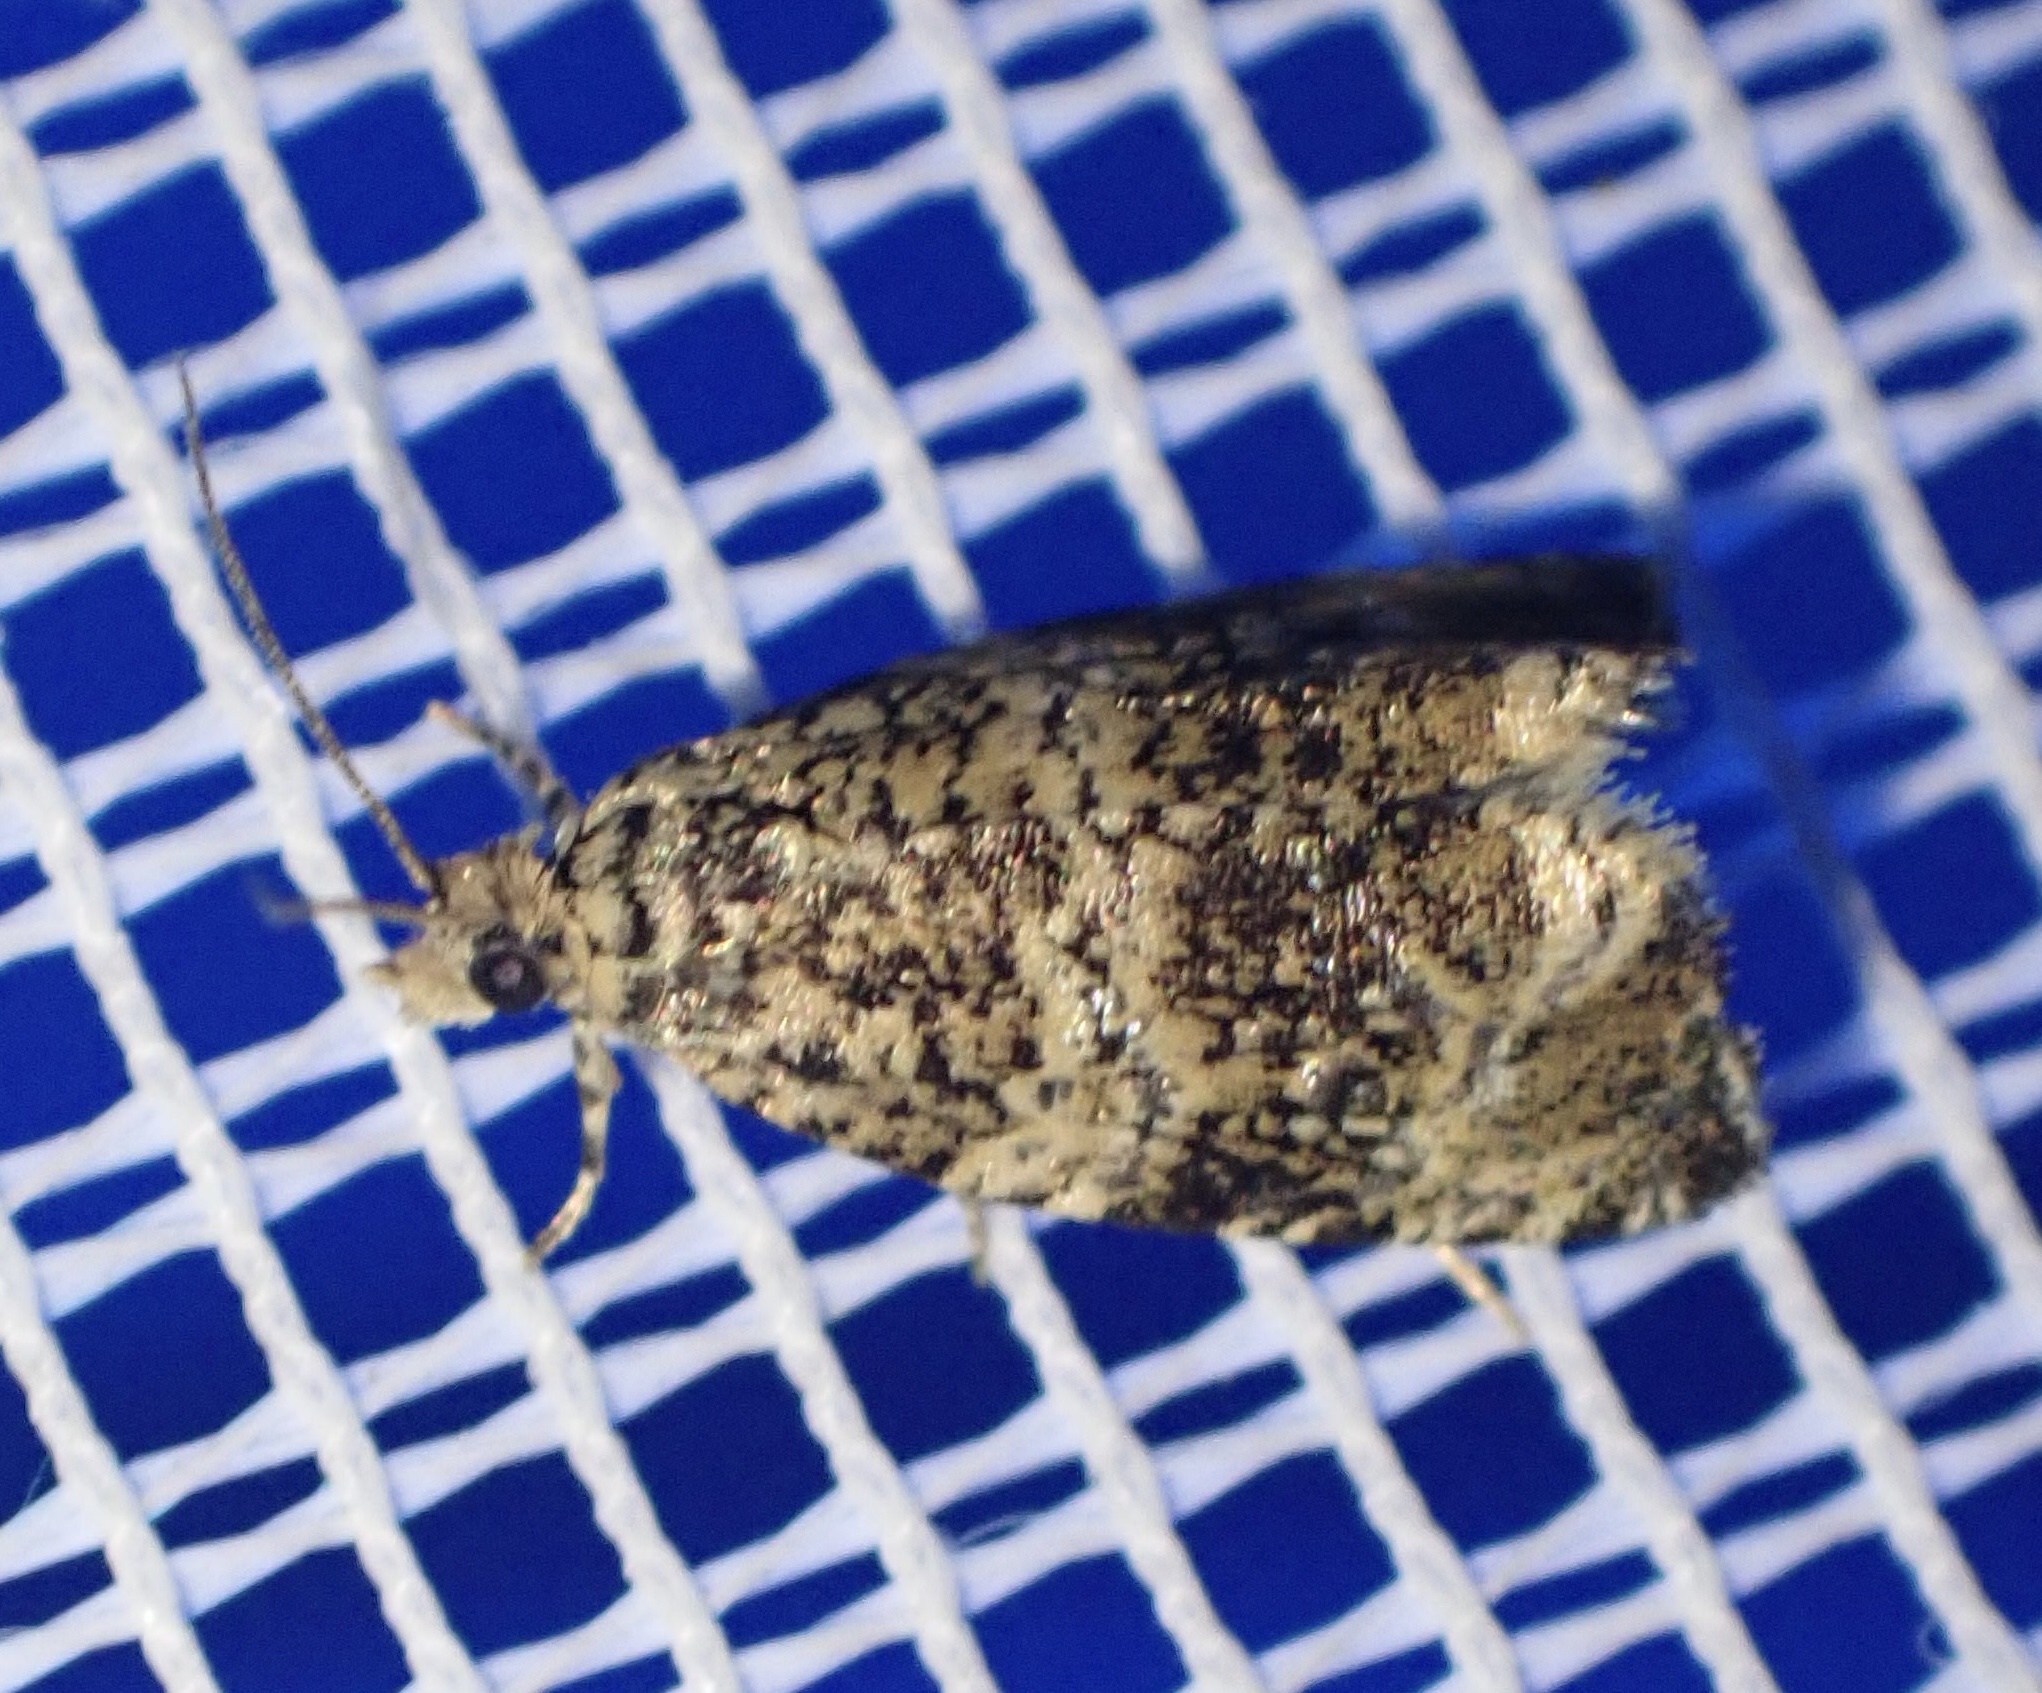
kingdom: Animalia
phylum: Arthropoda
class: Insecta
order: Lepidoptera
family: Tortricidae
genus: Syricoris
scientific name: Syricoris lacunana
